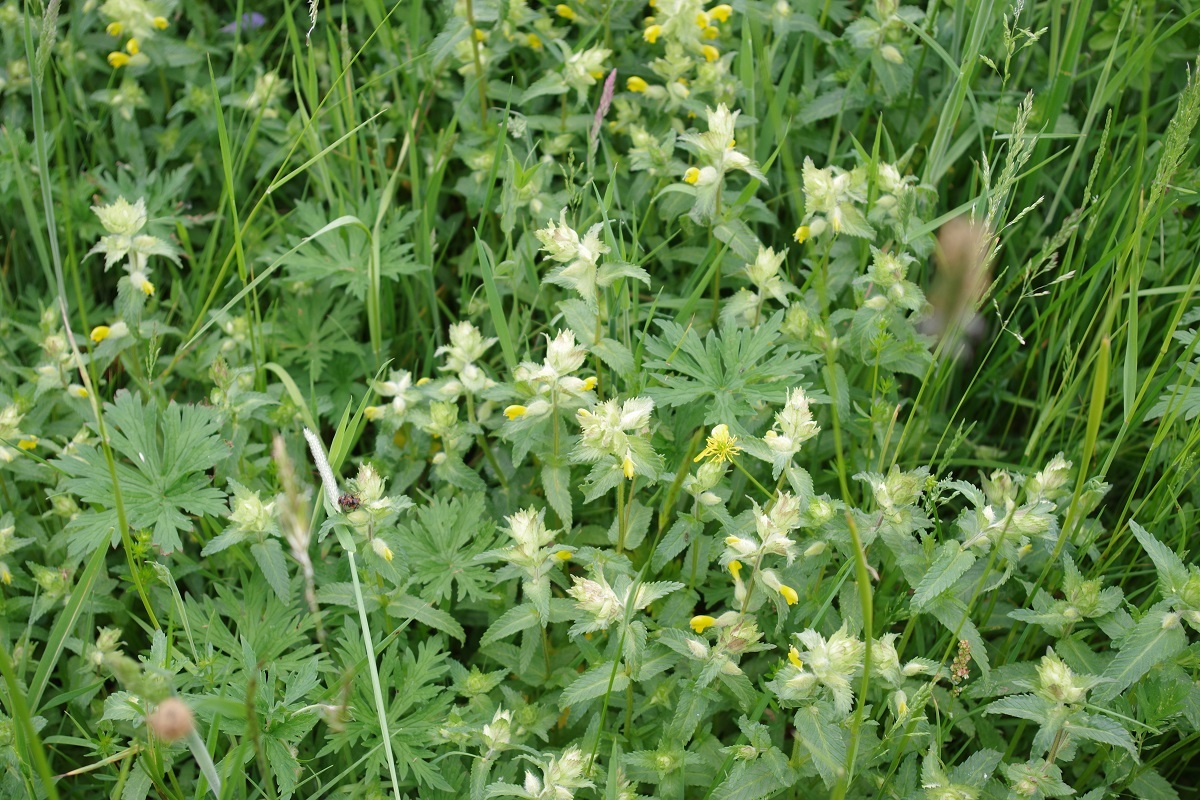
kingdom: Plantae
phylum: Tracheophyta
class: Magnoliopsida
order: Lamiales
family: Orobanchaceae
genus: Rhinanthus
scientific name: Rhinanthus alectorolophus
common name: Greater yellow-rattle
